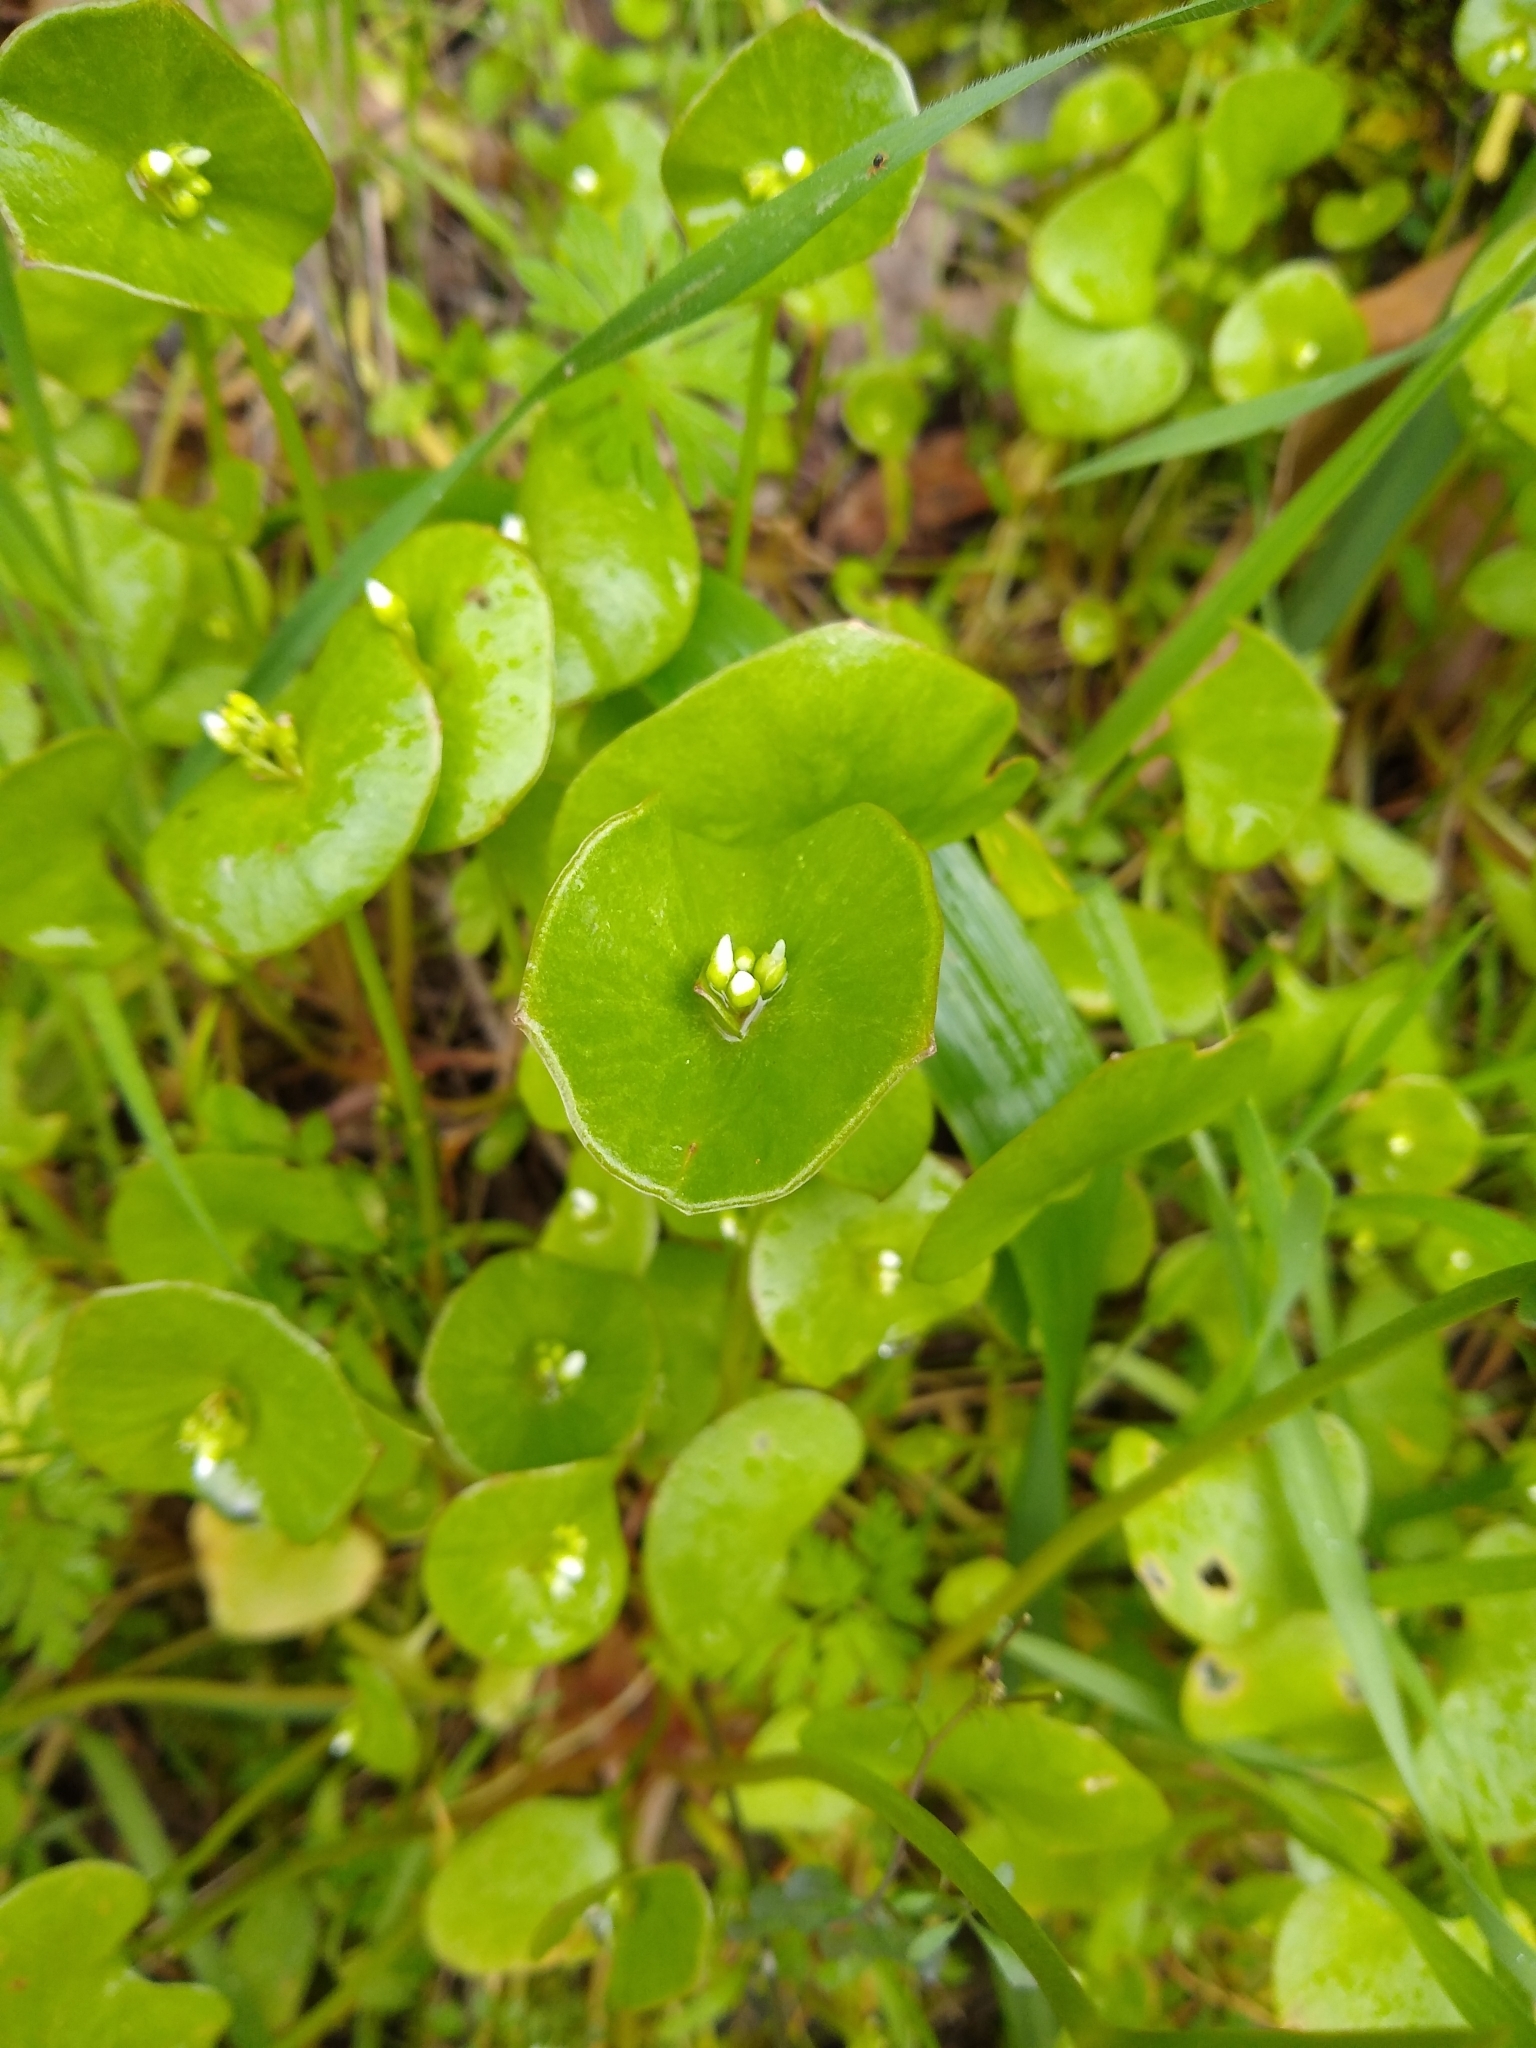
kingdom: Plantae
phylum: Tracheophyta
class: Magnoliopsida
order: Caryophyllales
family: Montiaceae
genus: Claytonia
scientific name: Claytonia perfoliata
